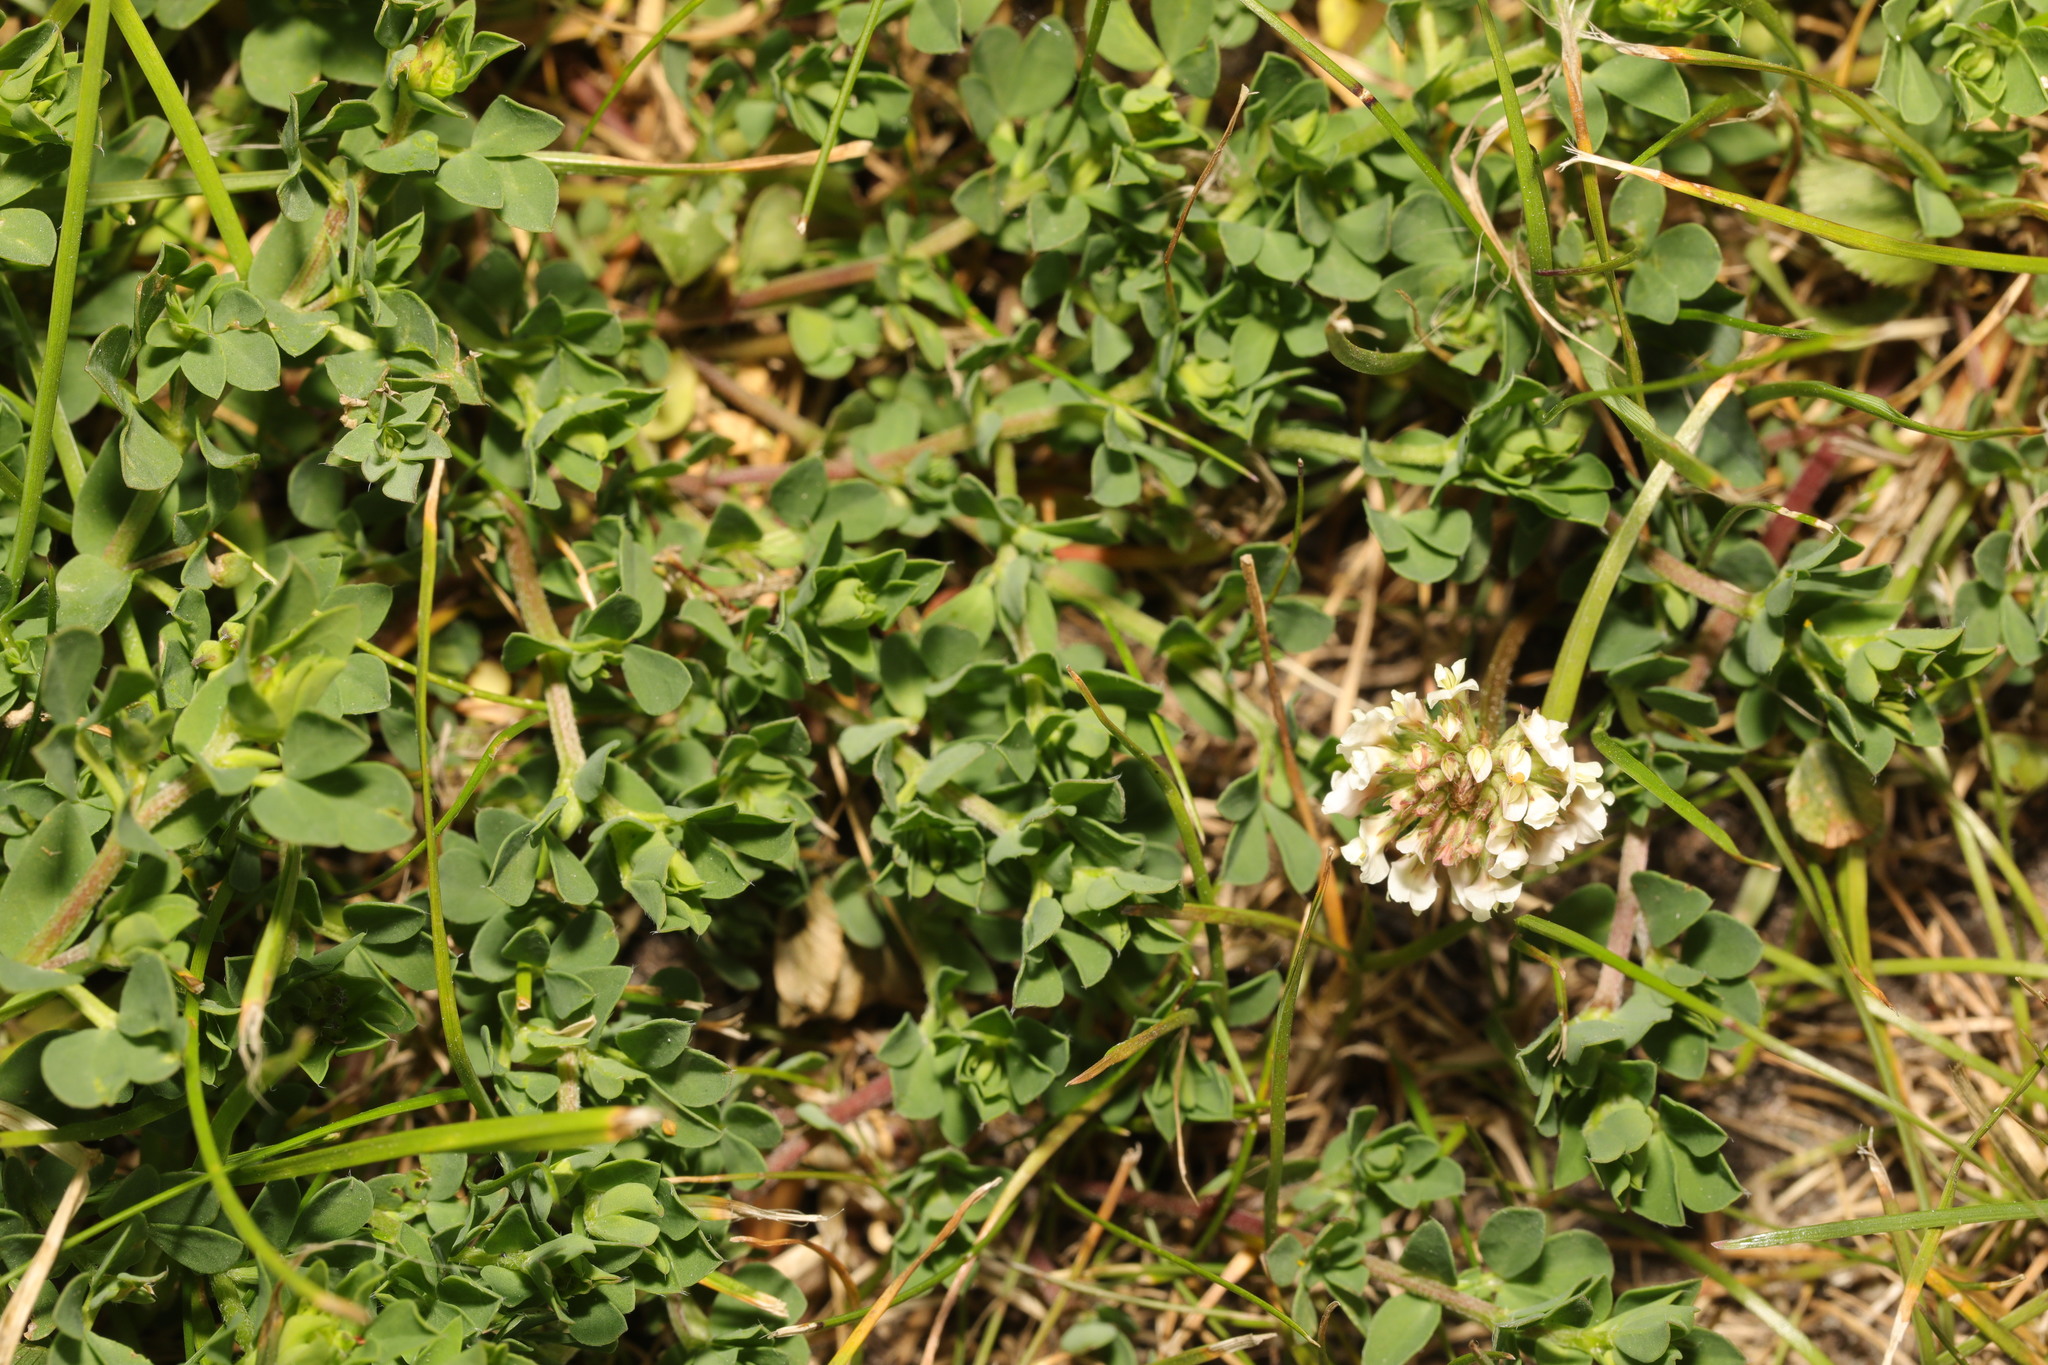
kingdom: Plantae
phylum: Tracheophyta
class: Magnoliopsida
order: Fabales
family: Fabaceae
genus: Trifolium
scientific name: Trifolium repens
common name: White clover
